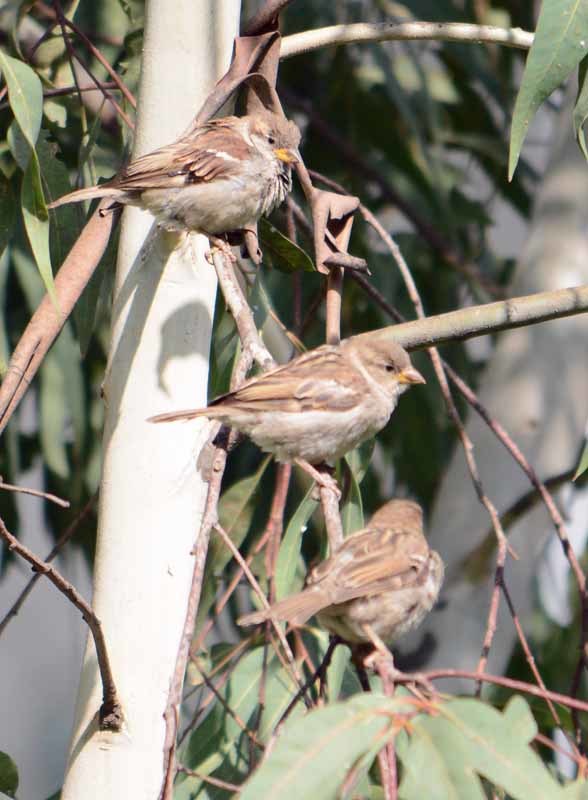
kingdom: Animalia
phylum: Chordata
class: Aves
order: Passeriformes
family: Passeridae
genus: Passer
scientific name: Passer domesticus
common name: House sparrow
